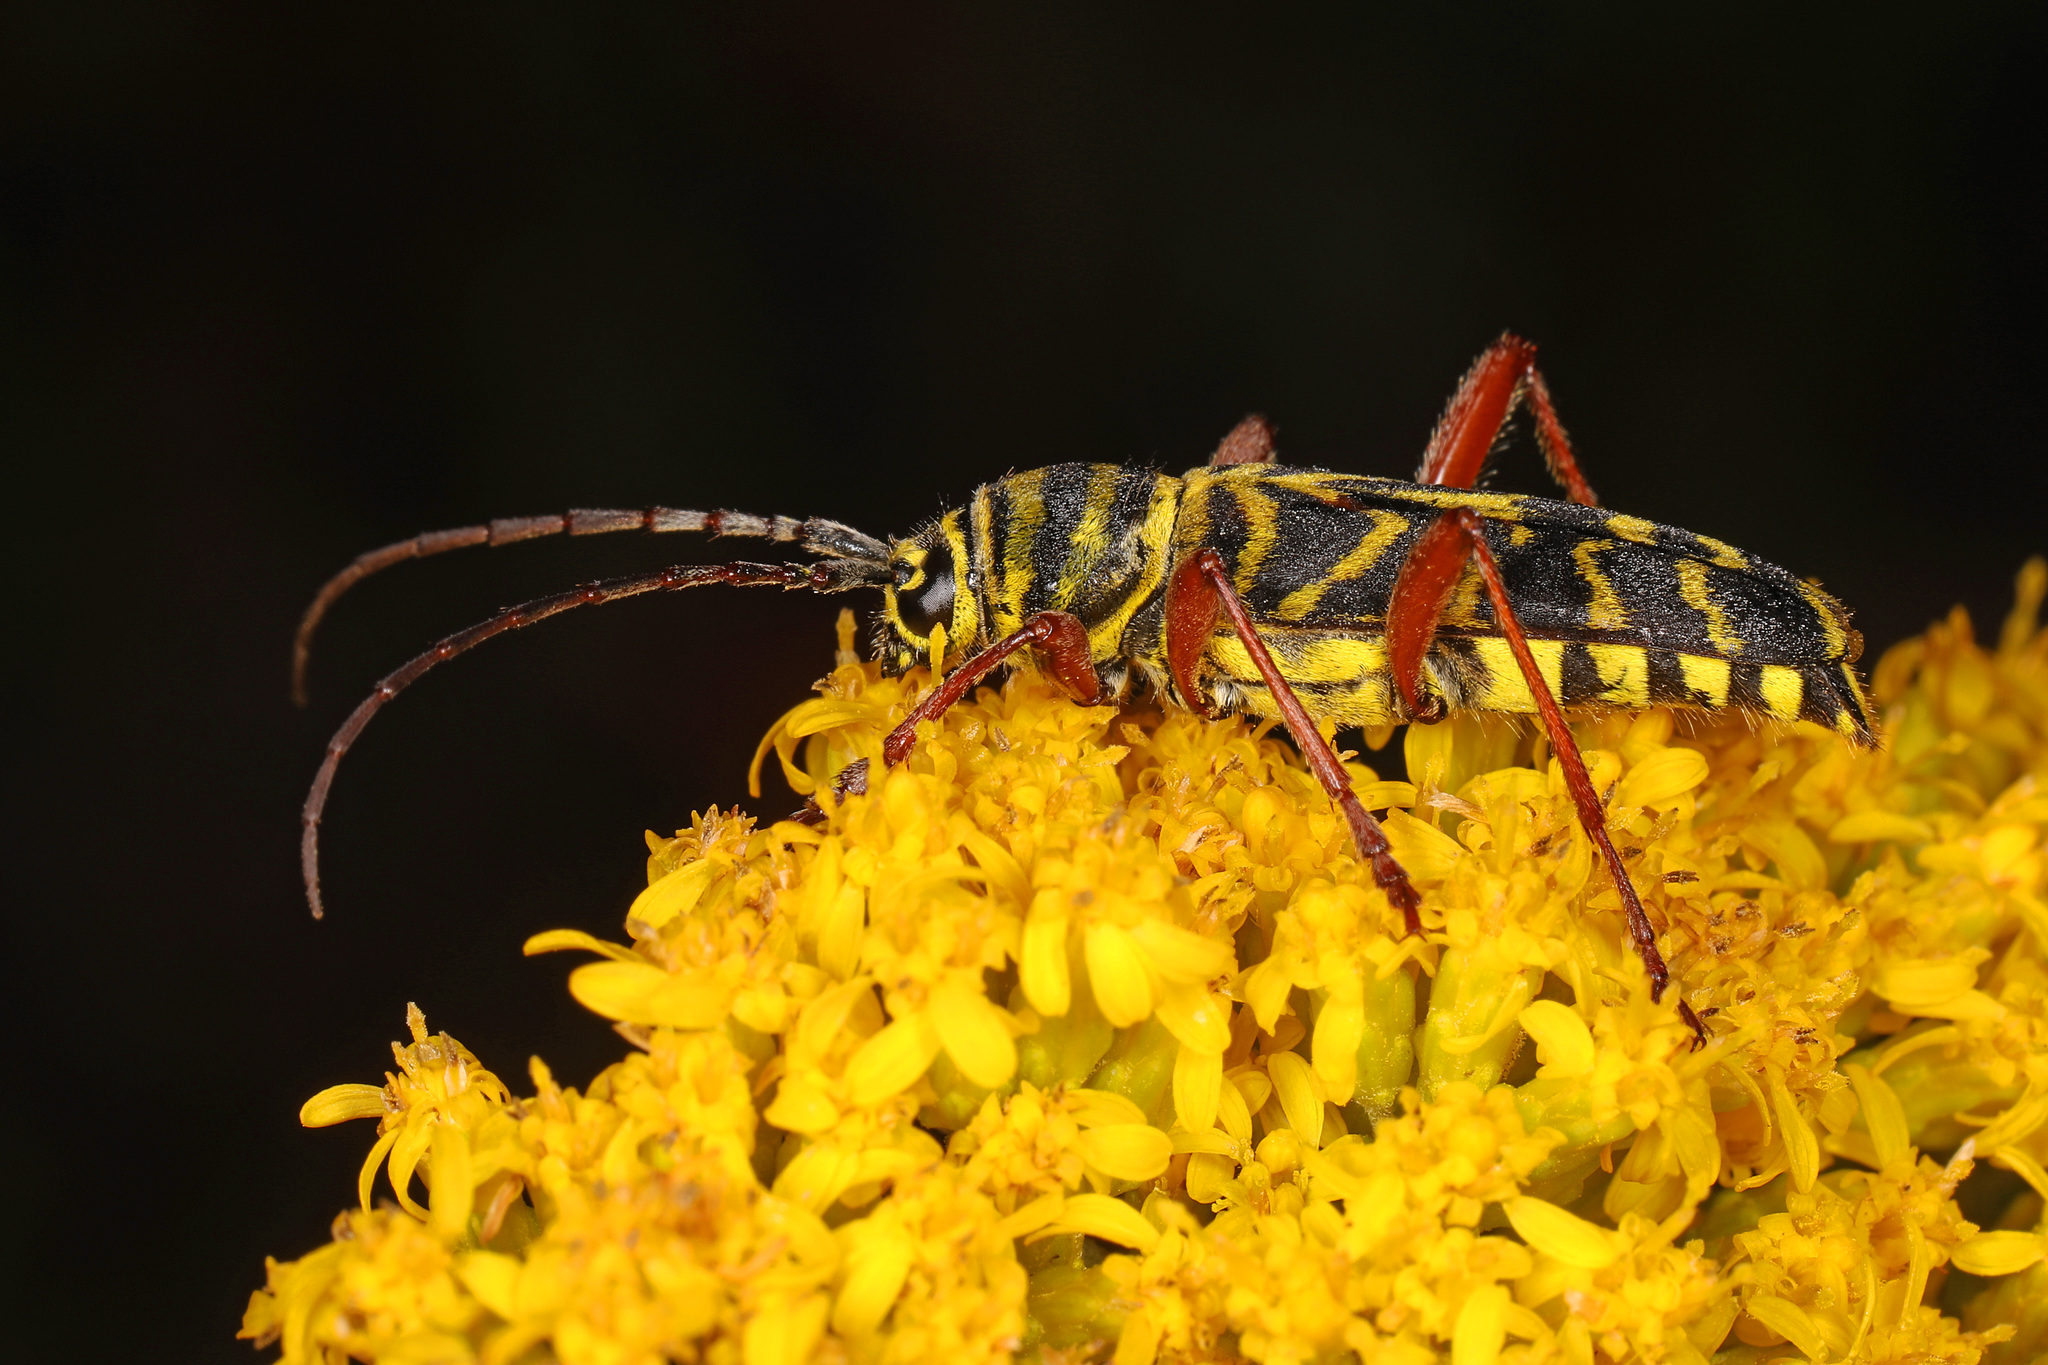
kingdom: Animalia
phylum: Arthropoda
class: Insecta
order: Coleoptera
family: Cerambycidae
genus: Megacyllene
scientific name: Megacyllene robiniae
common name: Locust borer
